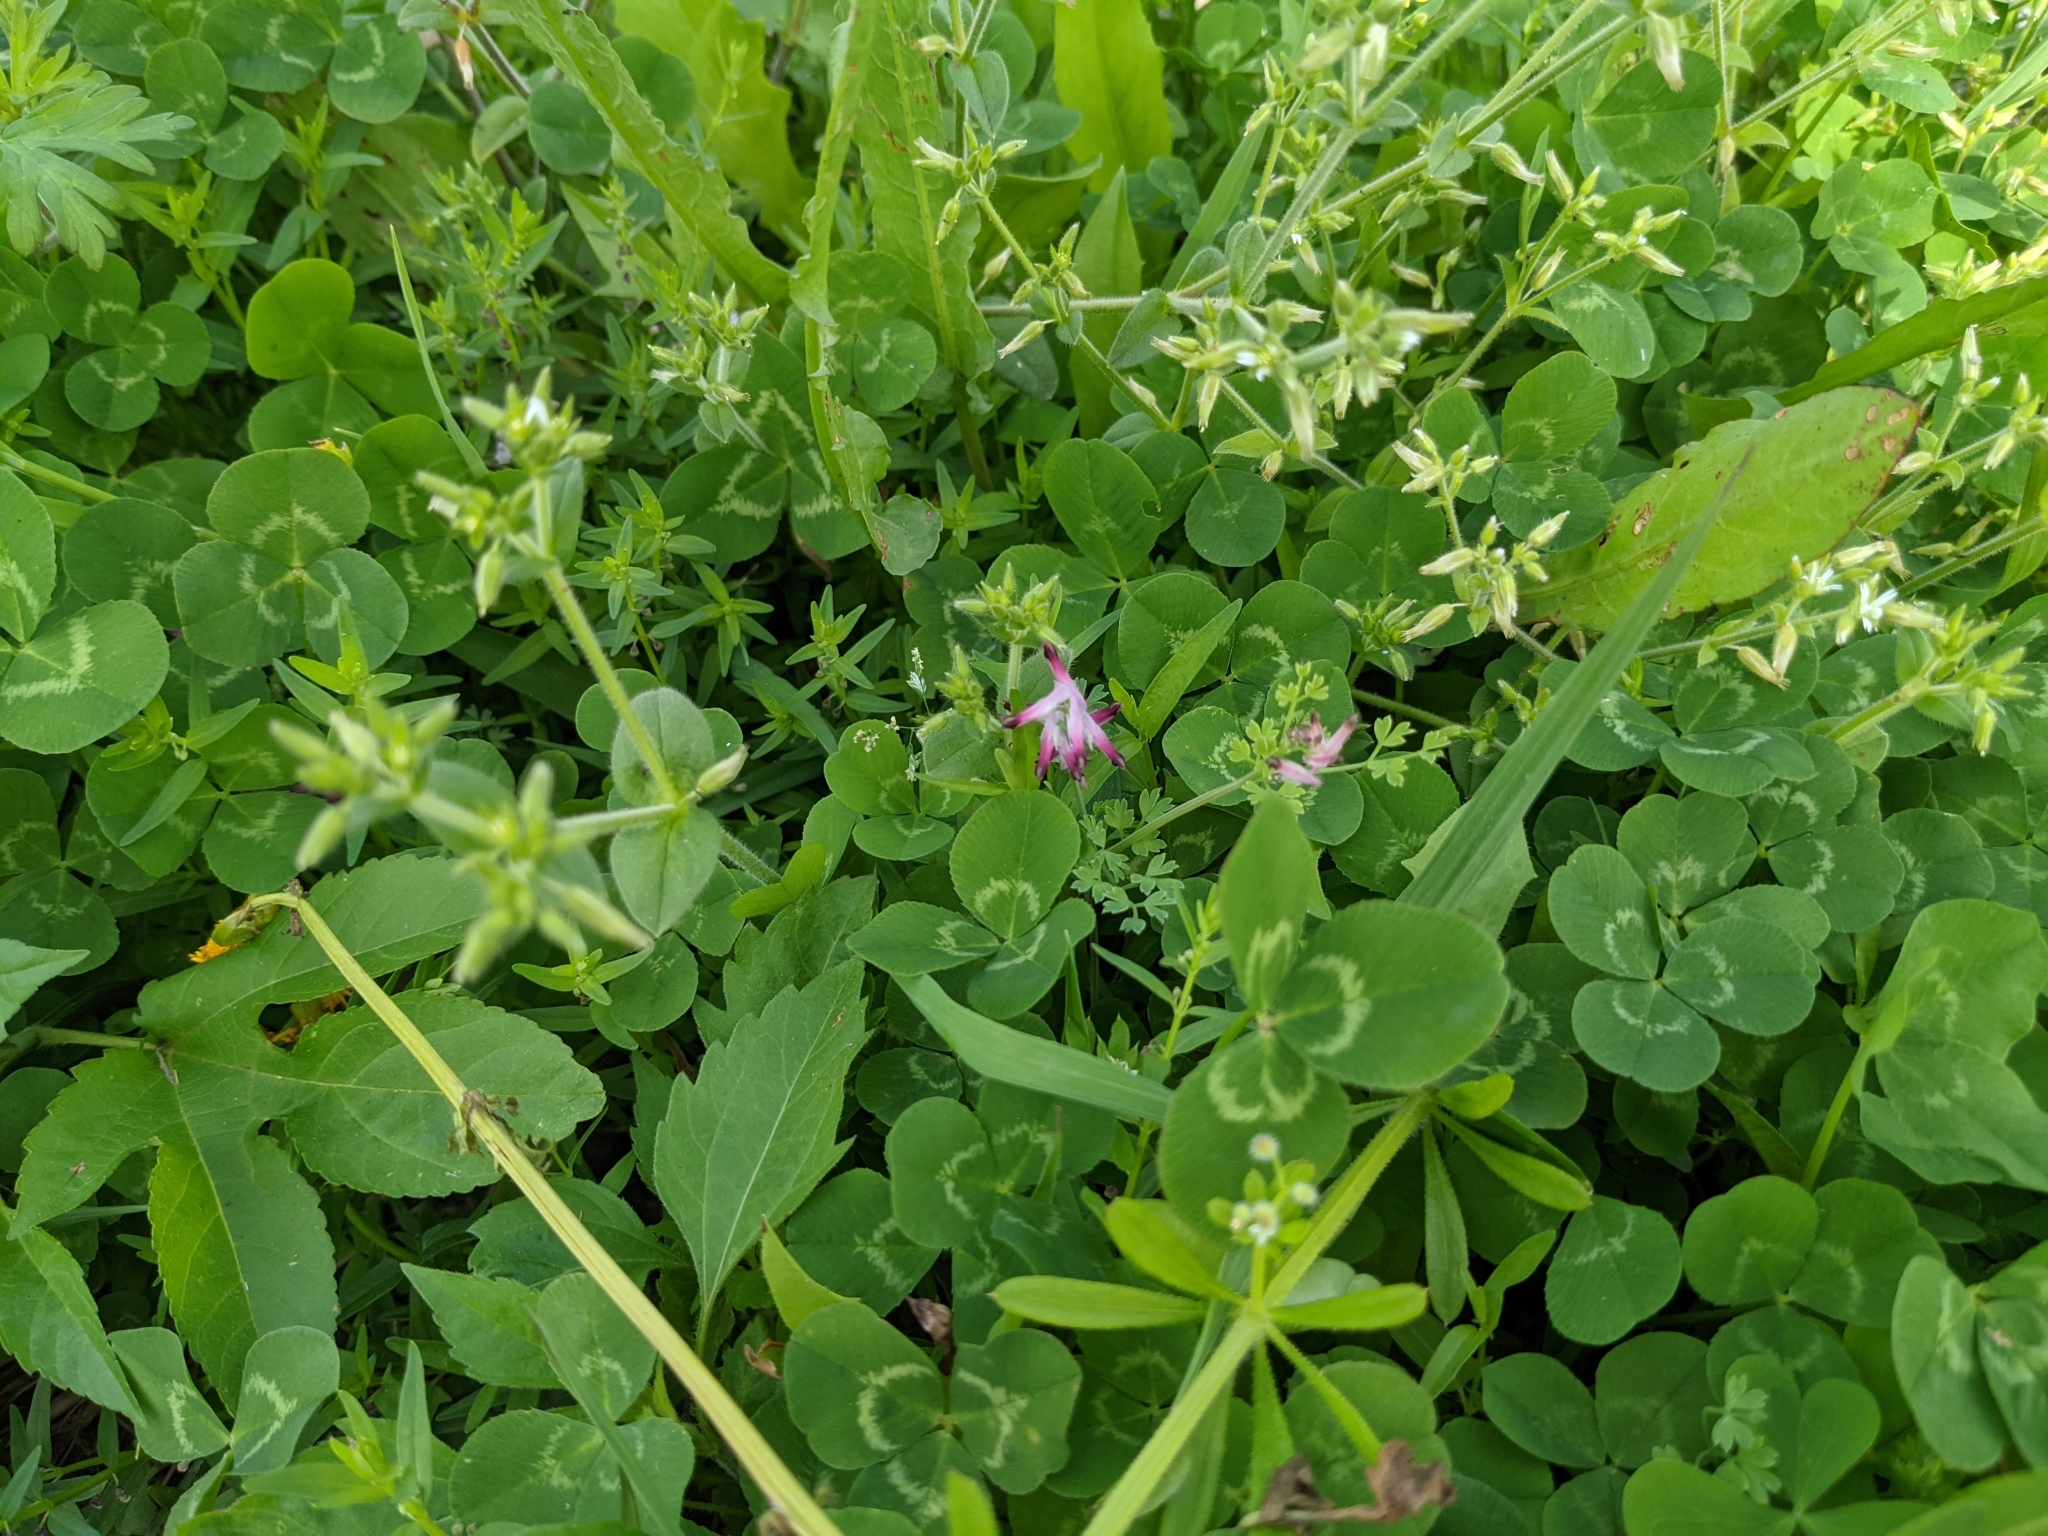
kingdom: Plantae
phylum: Tracheophyta
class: Magnoliopsida
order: Ranunculales
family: Papaveraceae
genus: Fumaria
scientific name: Fumaria muralis
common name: Common ramping-fumitory
